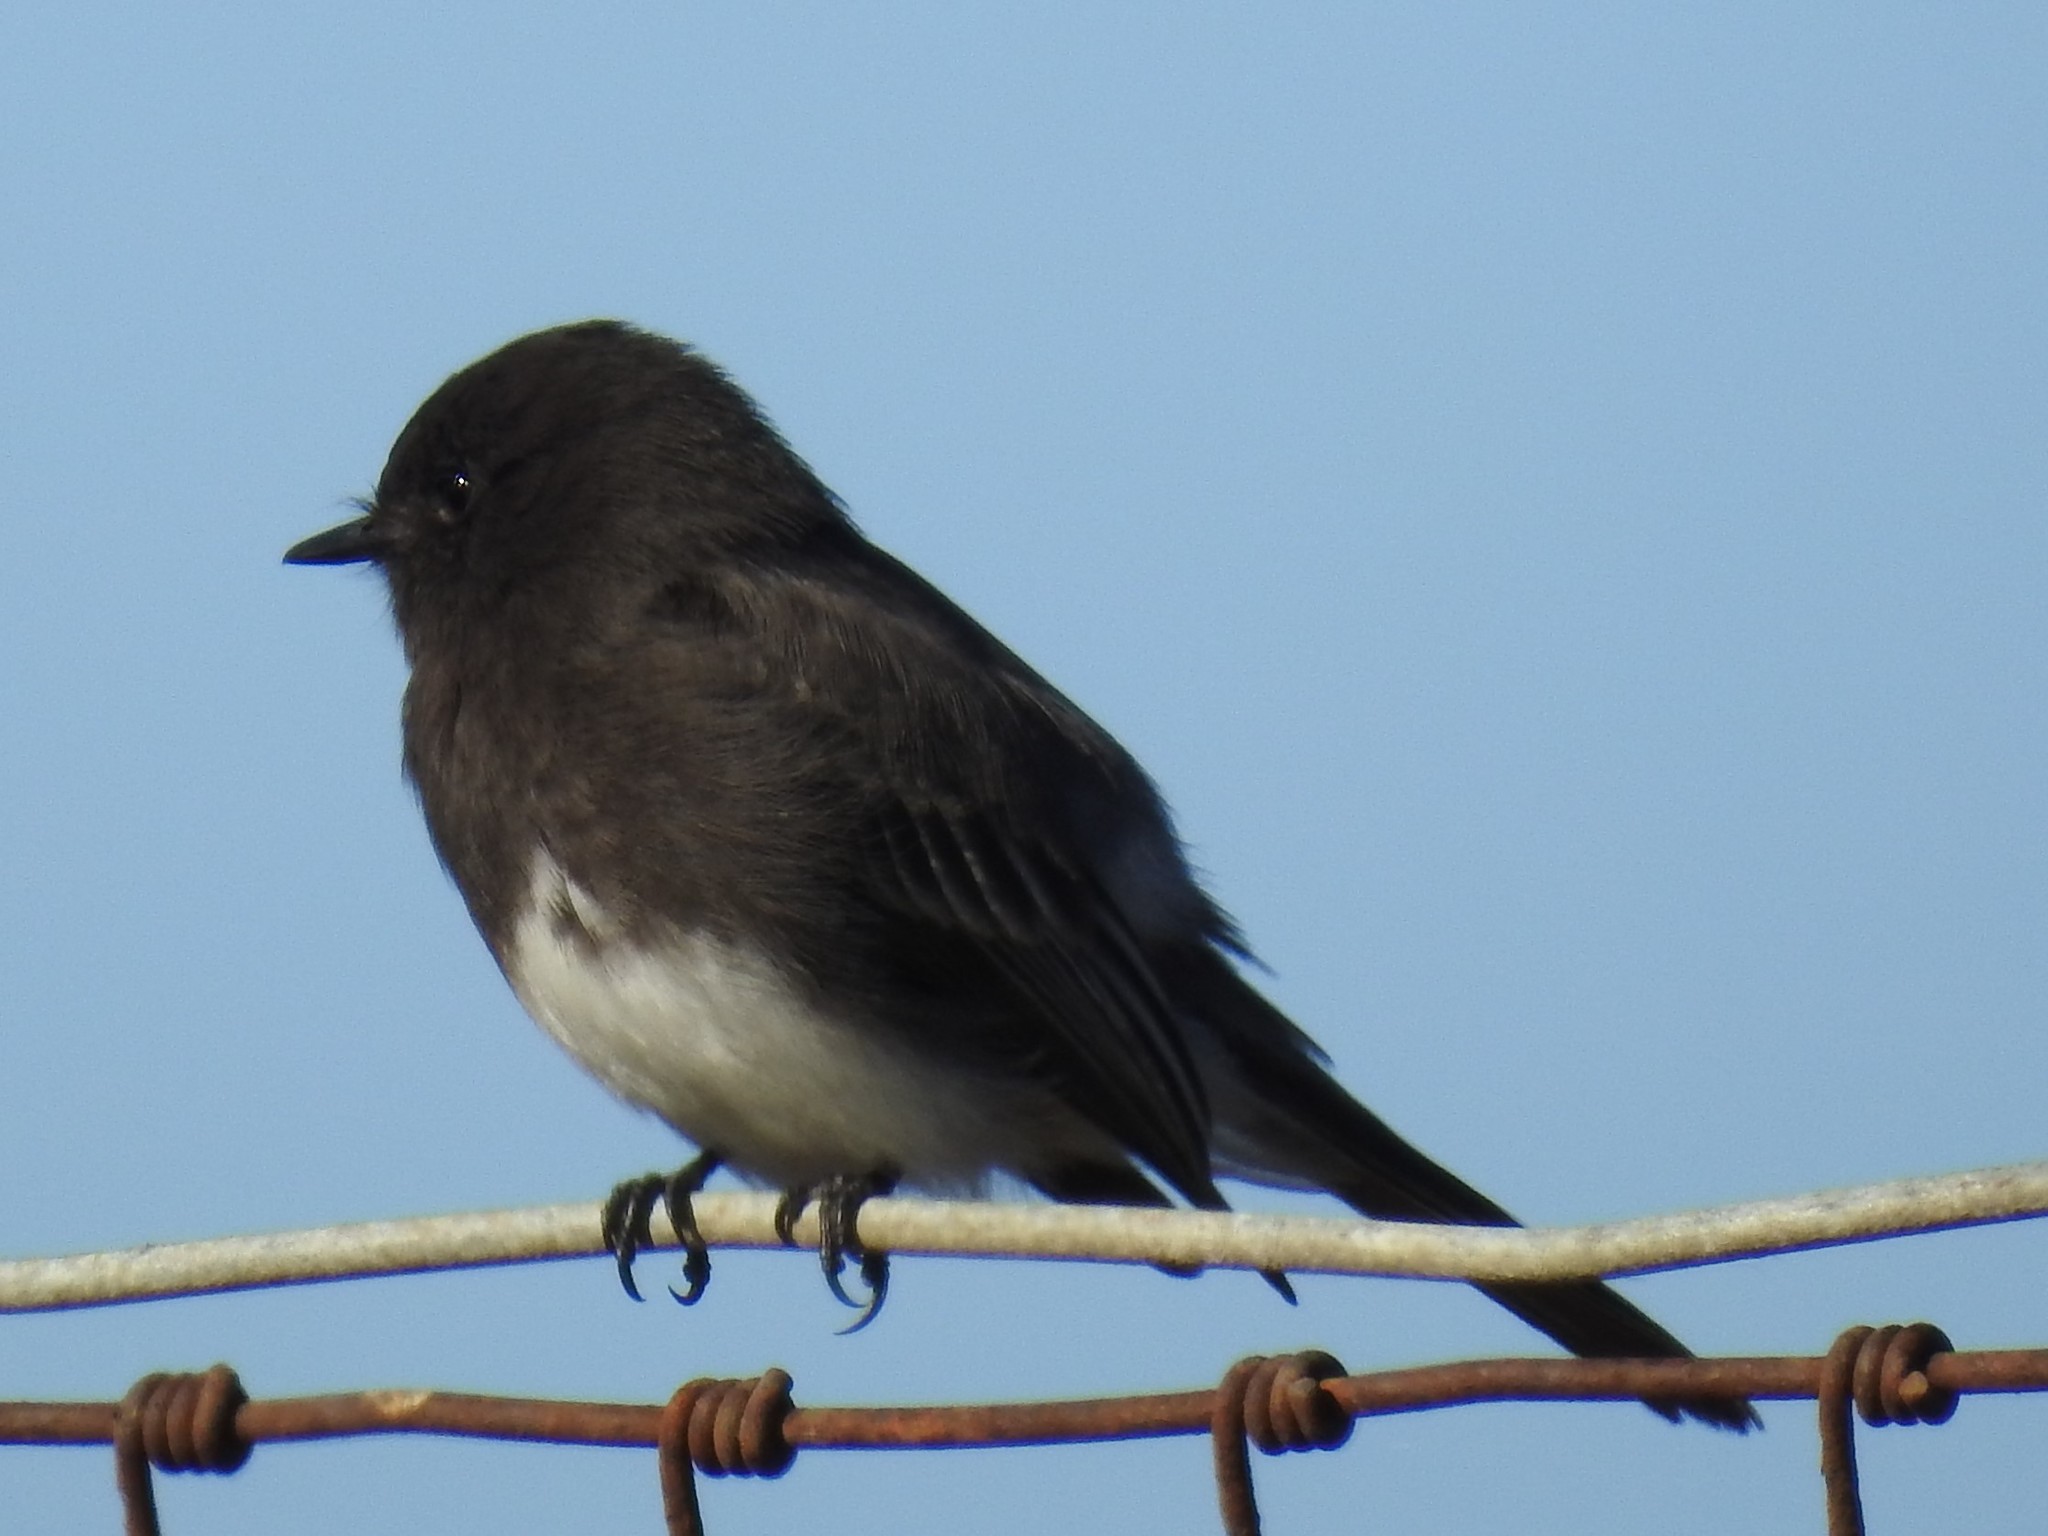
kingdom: Animalia
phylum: Chordata
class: Aves
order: Passeriformes
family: Tyrannidae
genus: Sayornis
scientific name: Sayornis nigricans
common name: Black phoebe
